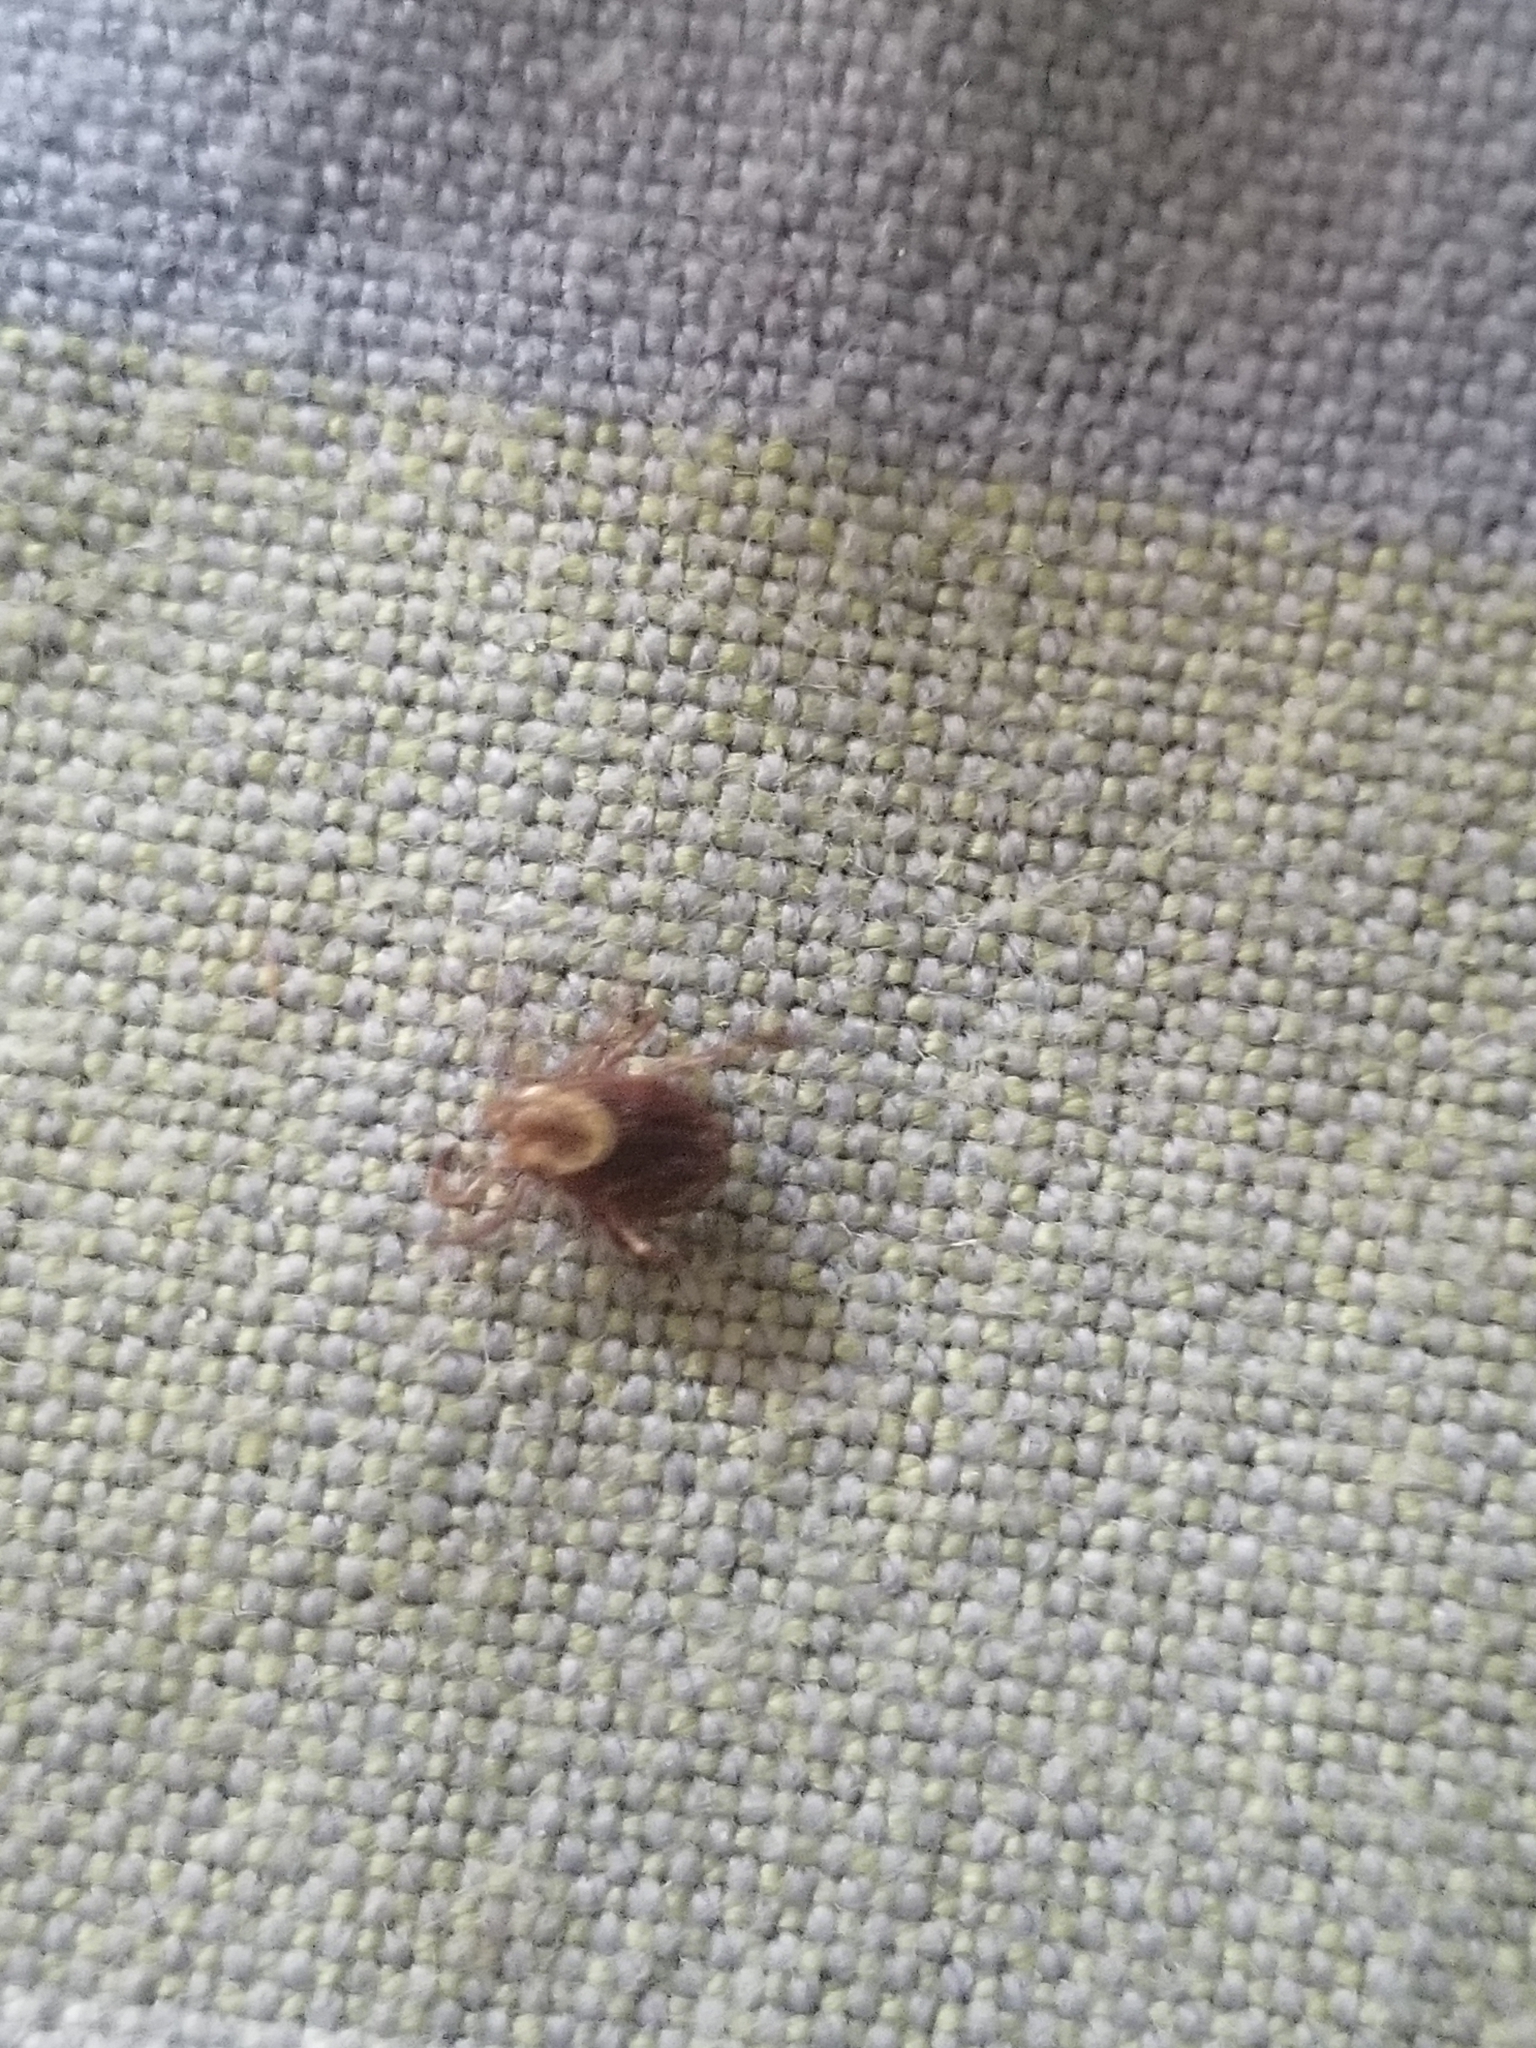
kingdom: Animalia
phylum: Arthropoda
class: Arachnida
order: Ixodida
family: Ixodidae
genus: Dermacentor
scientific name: Dermacentor variabilis
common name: American dog tick
